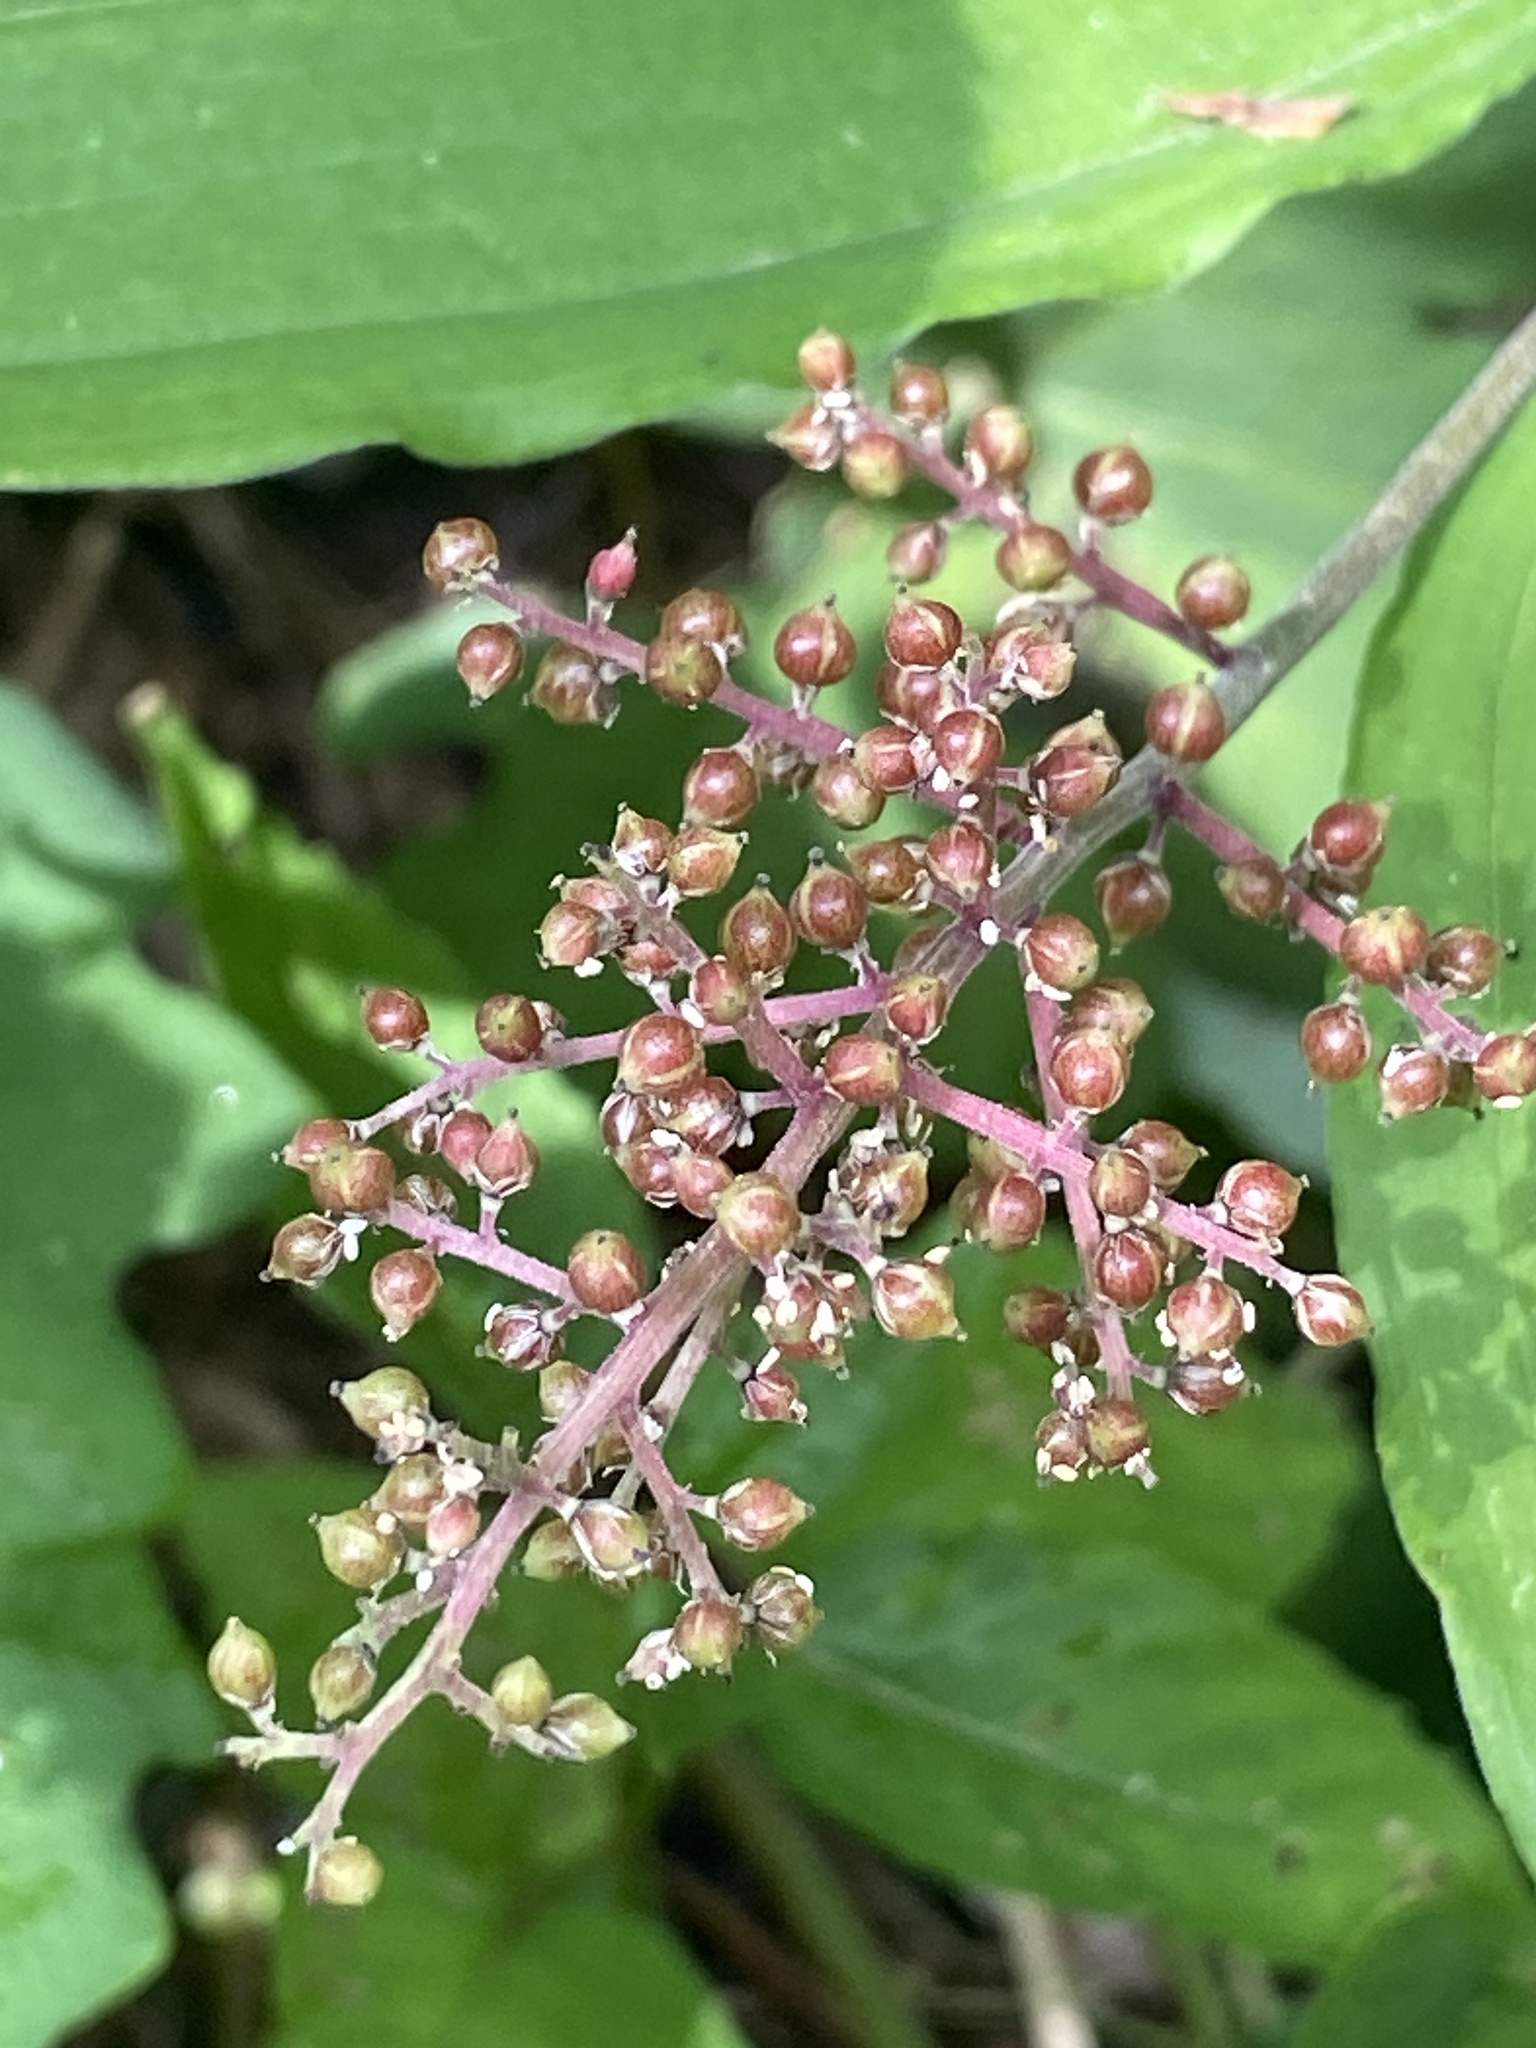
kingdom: Plantae
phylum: Tracheophyta
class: Liliopsida
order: Asparagales
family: Asparagaceae
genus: Maianthemum
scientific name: Maianthemum racemosum
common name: False spikenard
